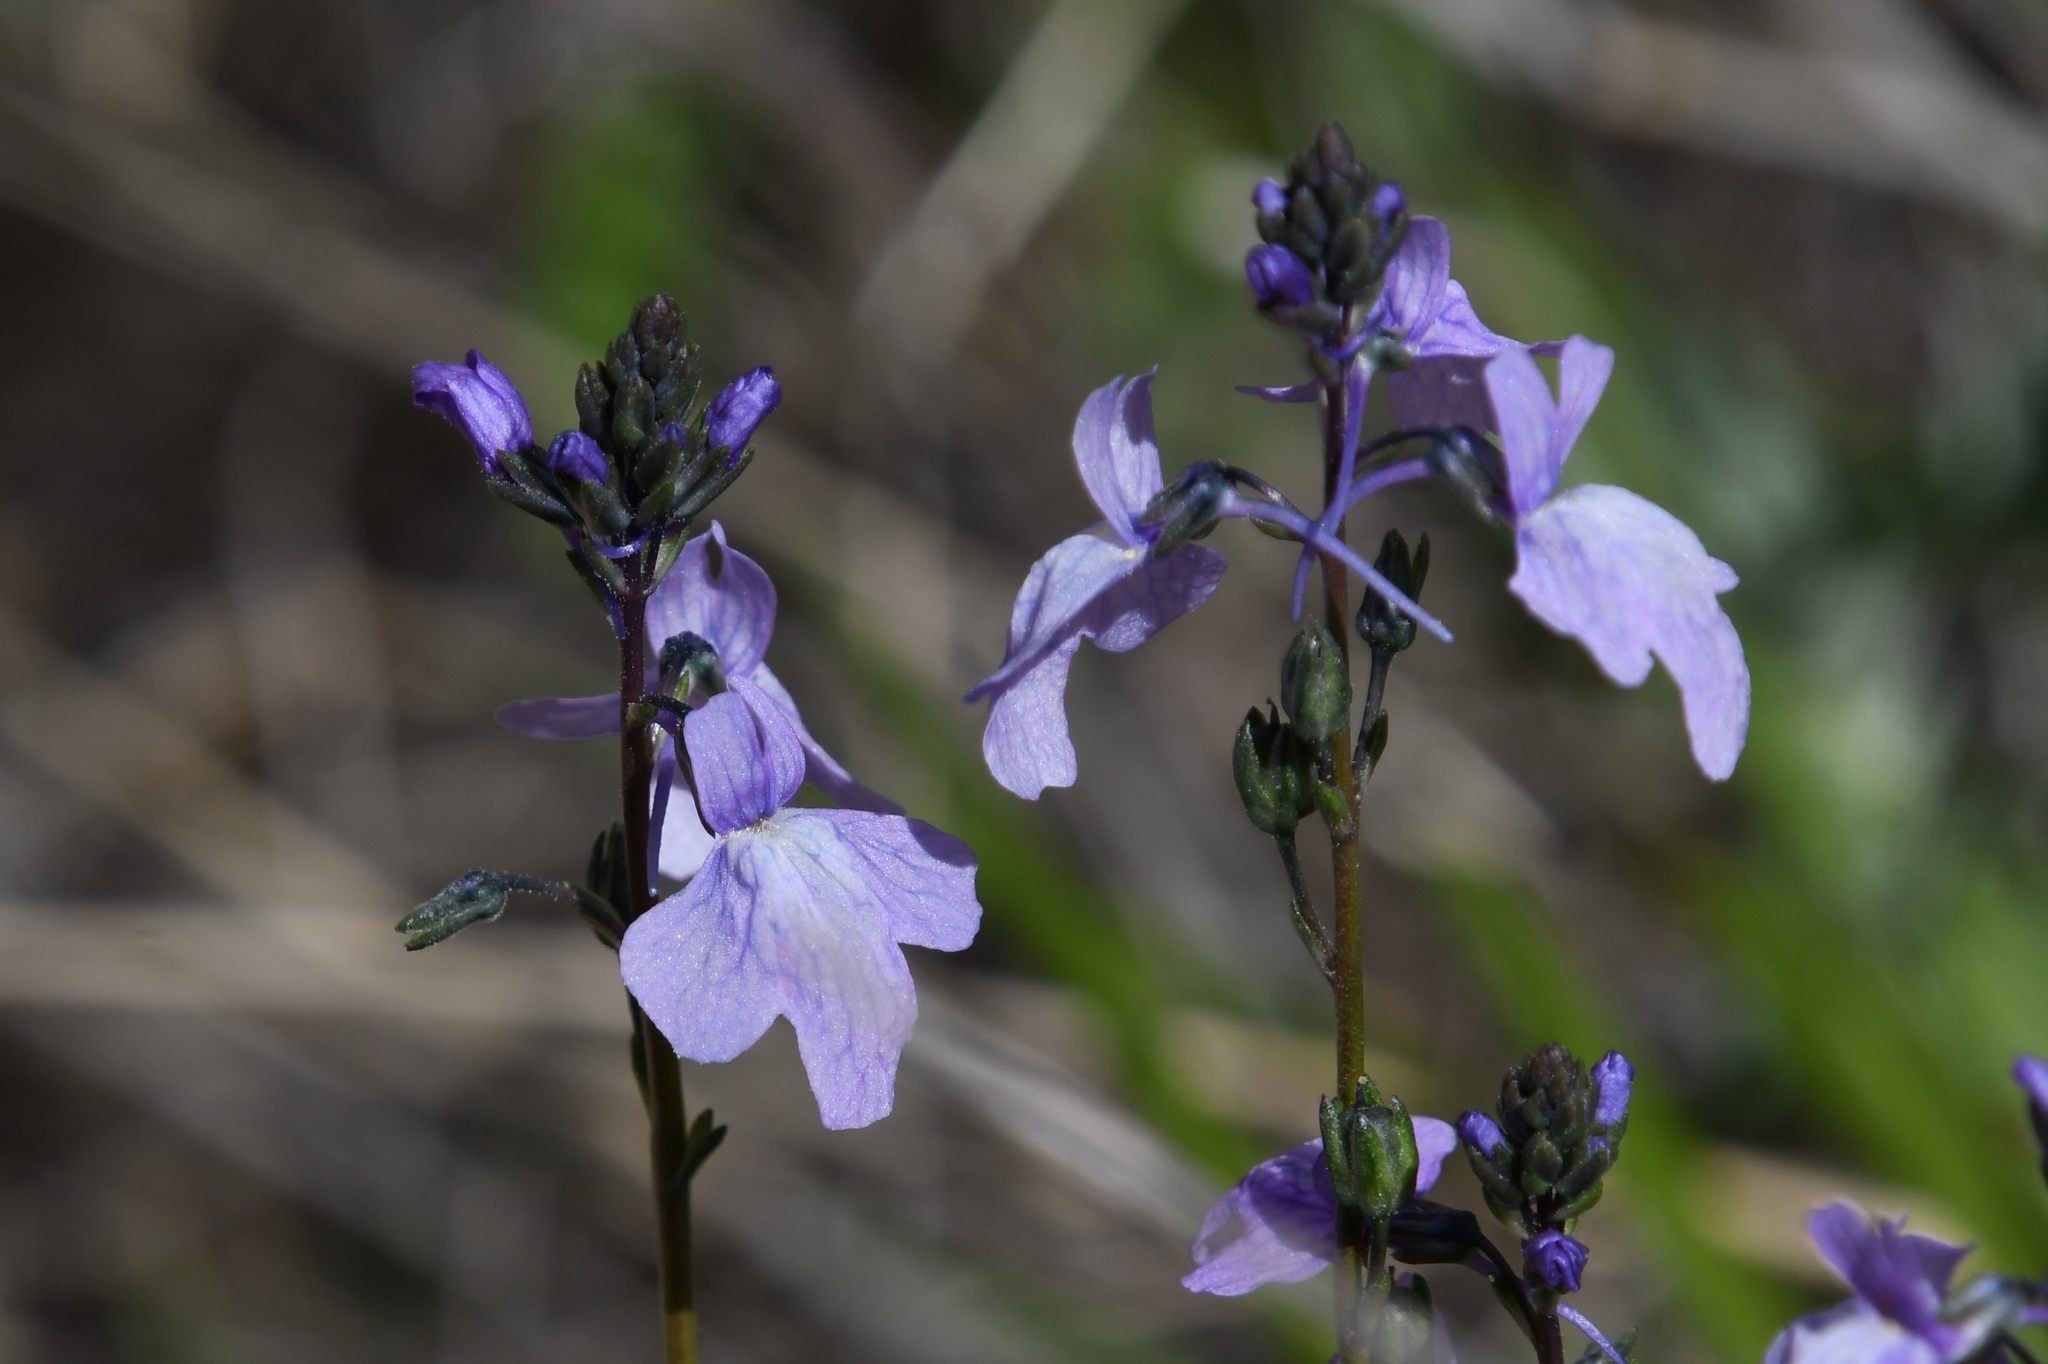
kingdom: Plantae
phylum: Tracheophyta
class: Magnoliopsida
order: Lamiales
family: Plantaginaceae
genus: Nuttallanthus
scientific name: Nuttallanthus texanus
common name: Texas toadflax
